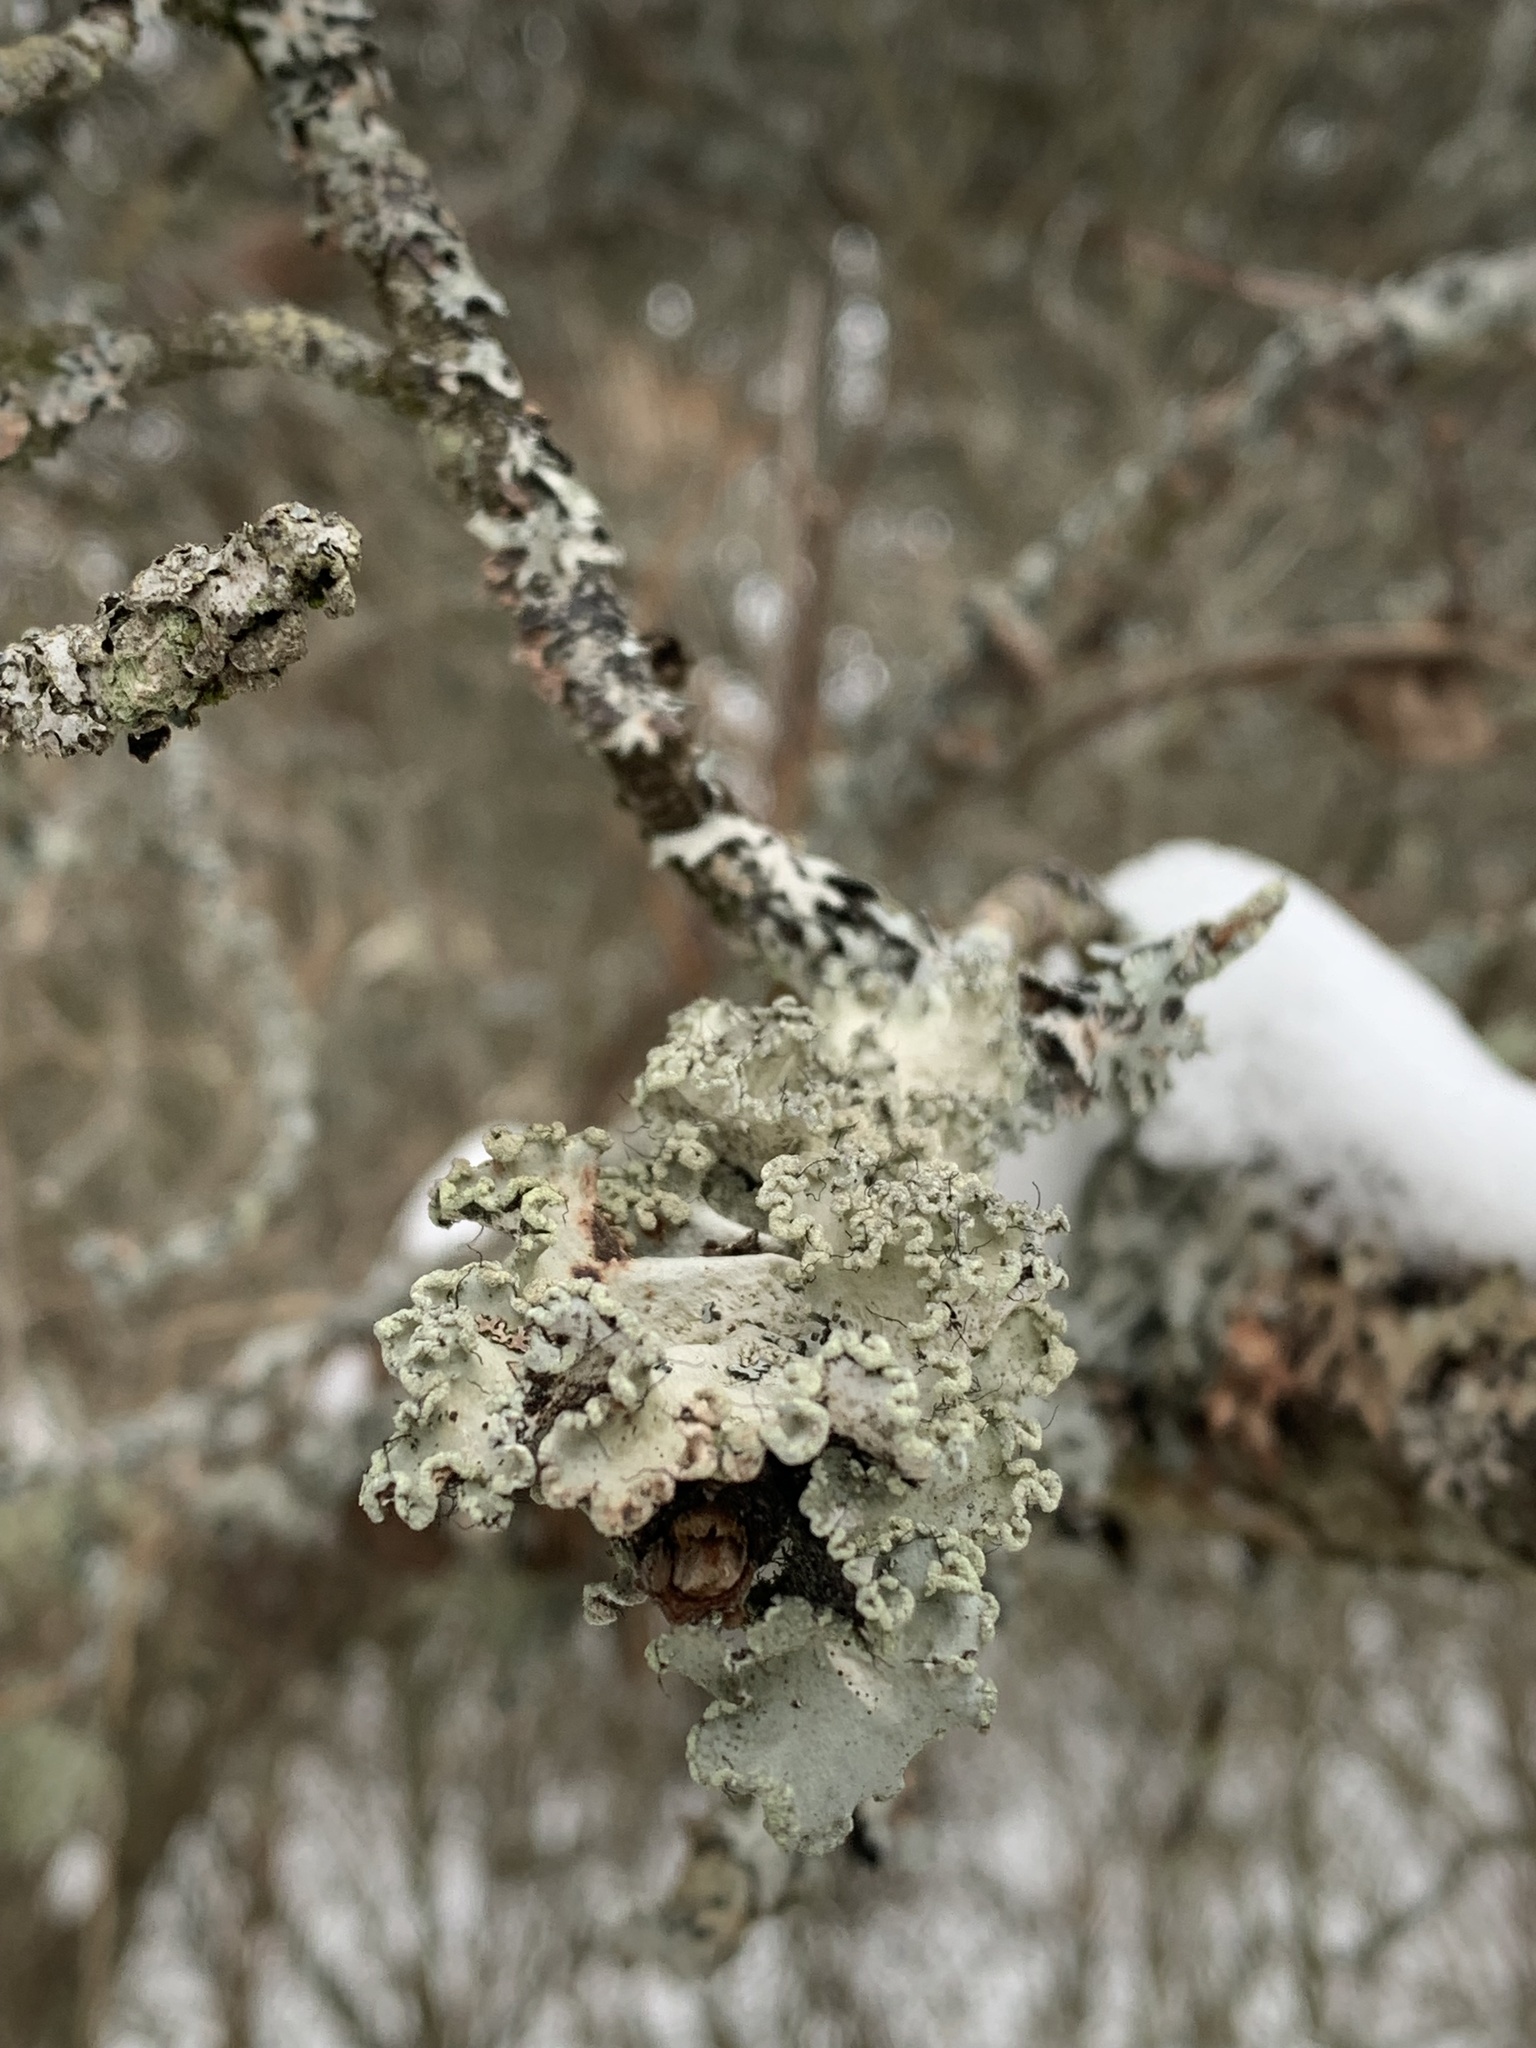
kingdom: Fungi
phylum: Ascomycota
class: Lecanoromycetes
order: Lecanorales
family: Parmeliaceae
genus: Parmotrema
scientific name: Parmotrema hypotropum
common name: Powdered ruffle lichen
